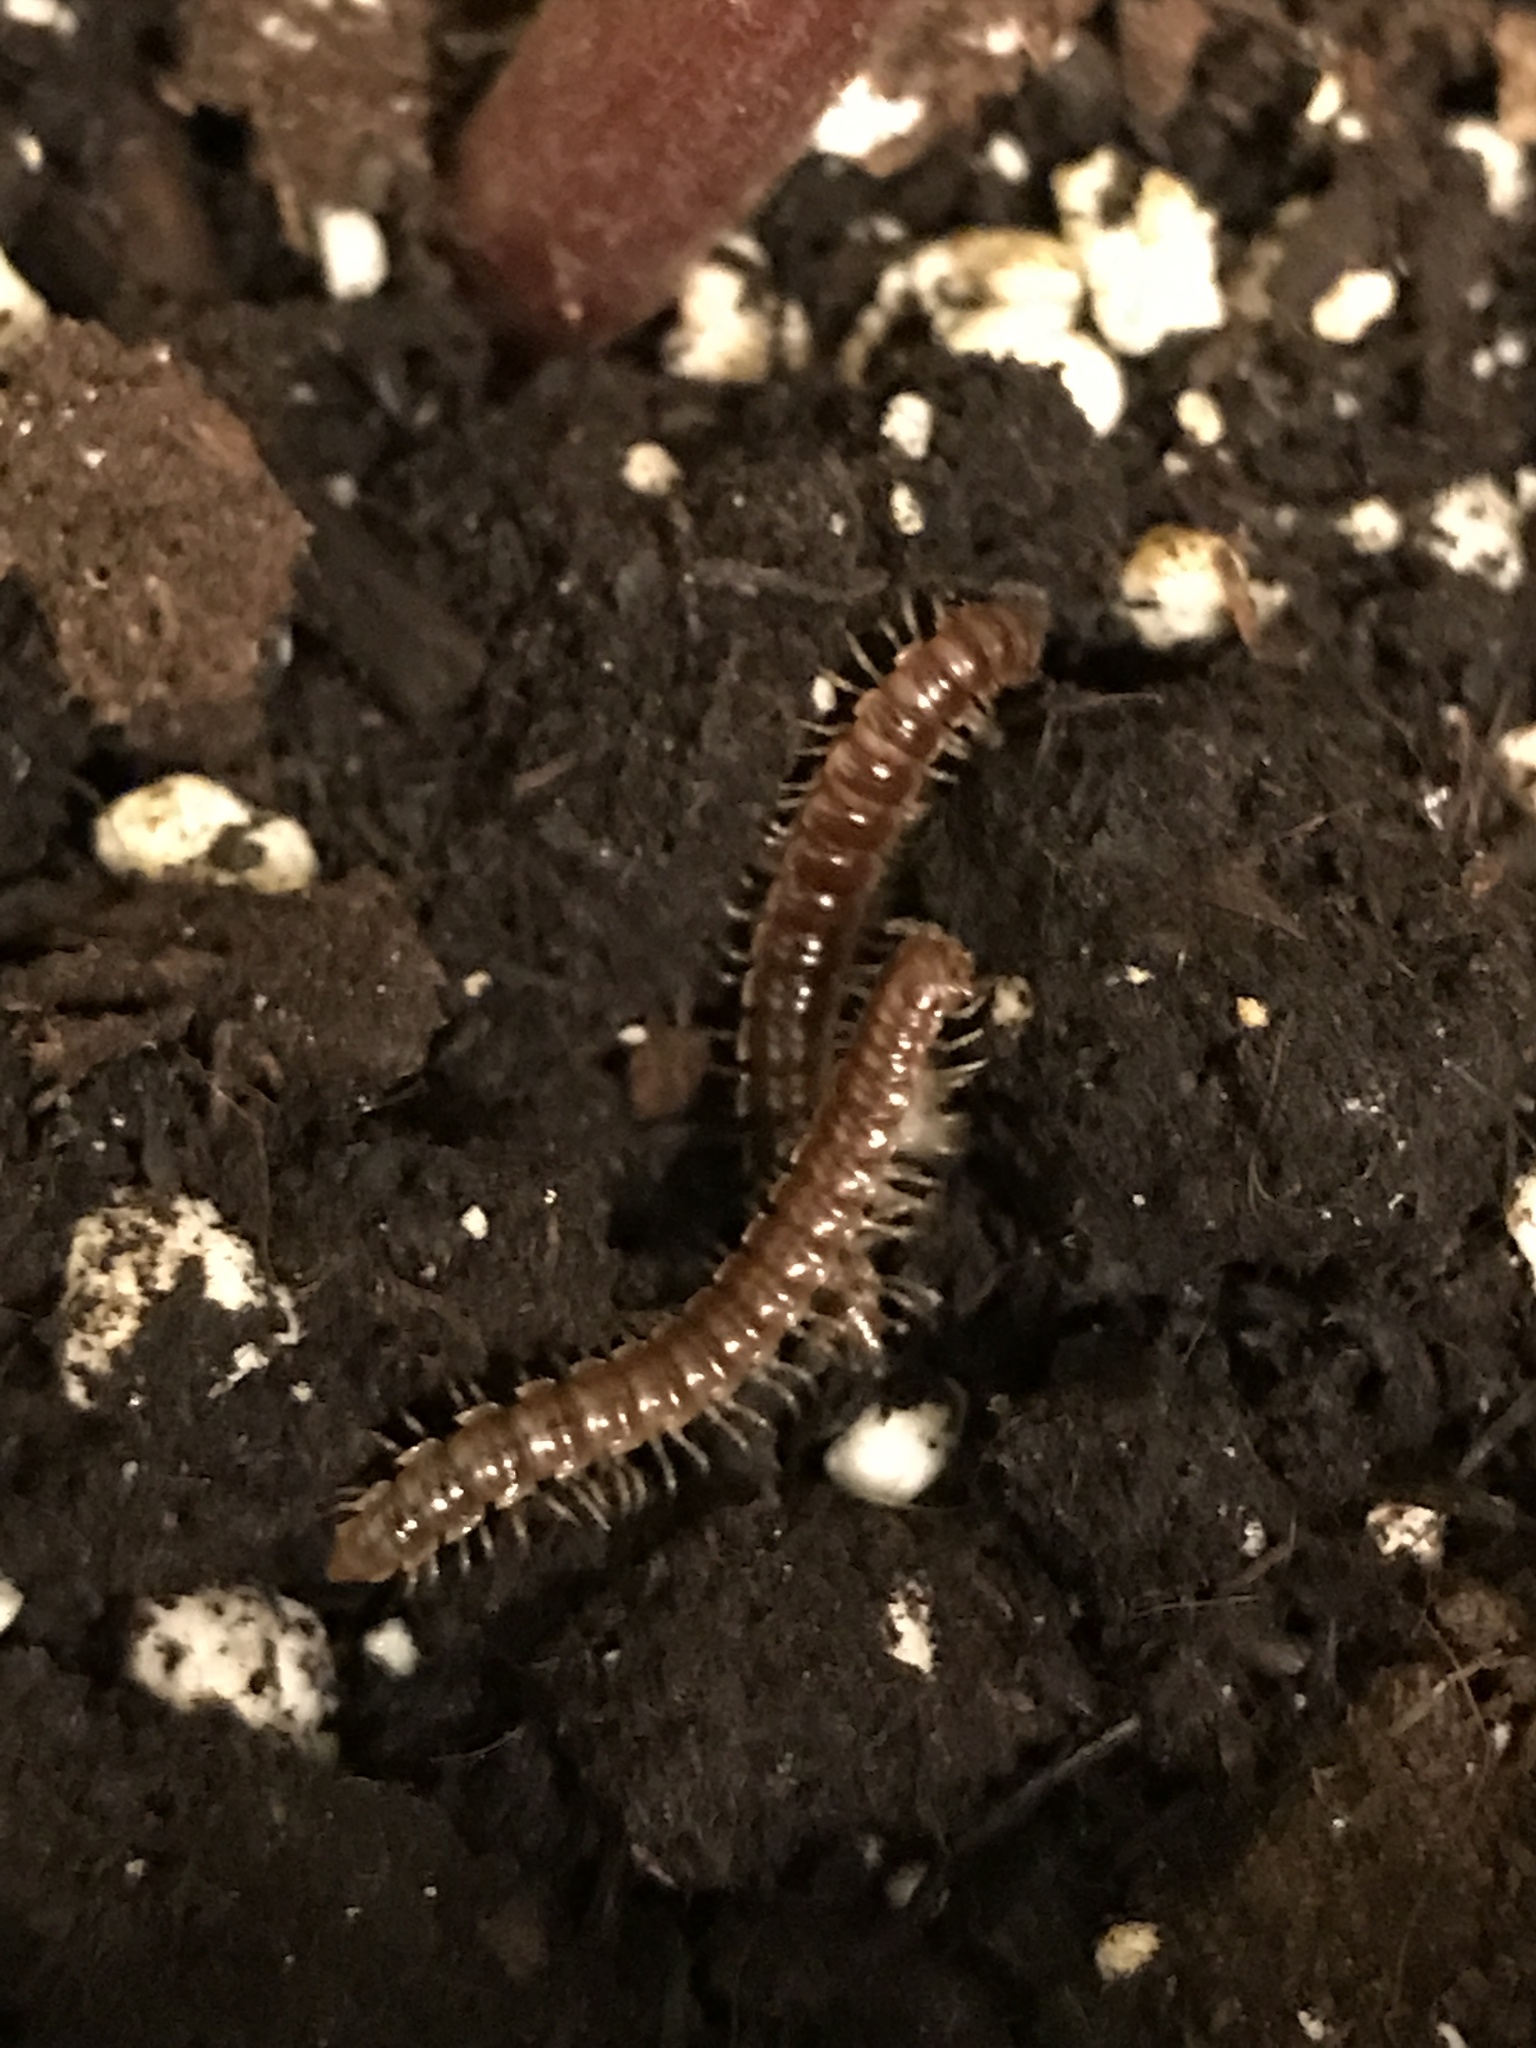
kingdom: Animalia
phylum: Arthropoda
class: Diplopoda
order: Polydesmida
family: Paradoxosomatidae
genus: Oxidus
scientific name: Oxidus gracilis
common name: Greenhouse millipede
